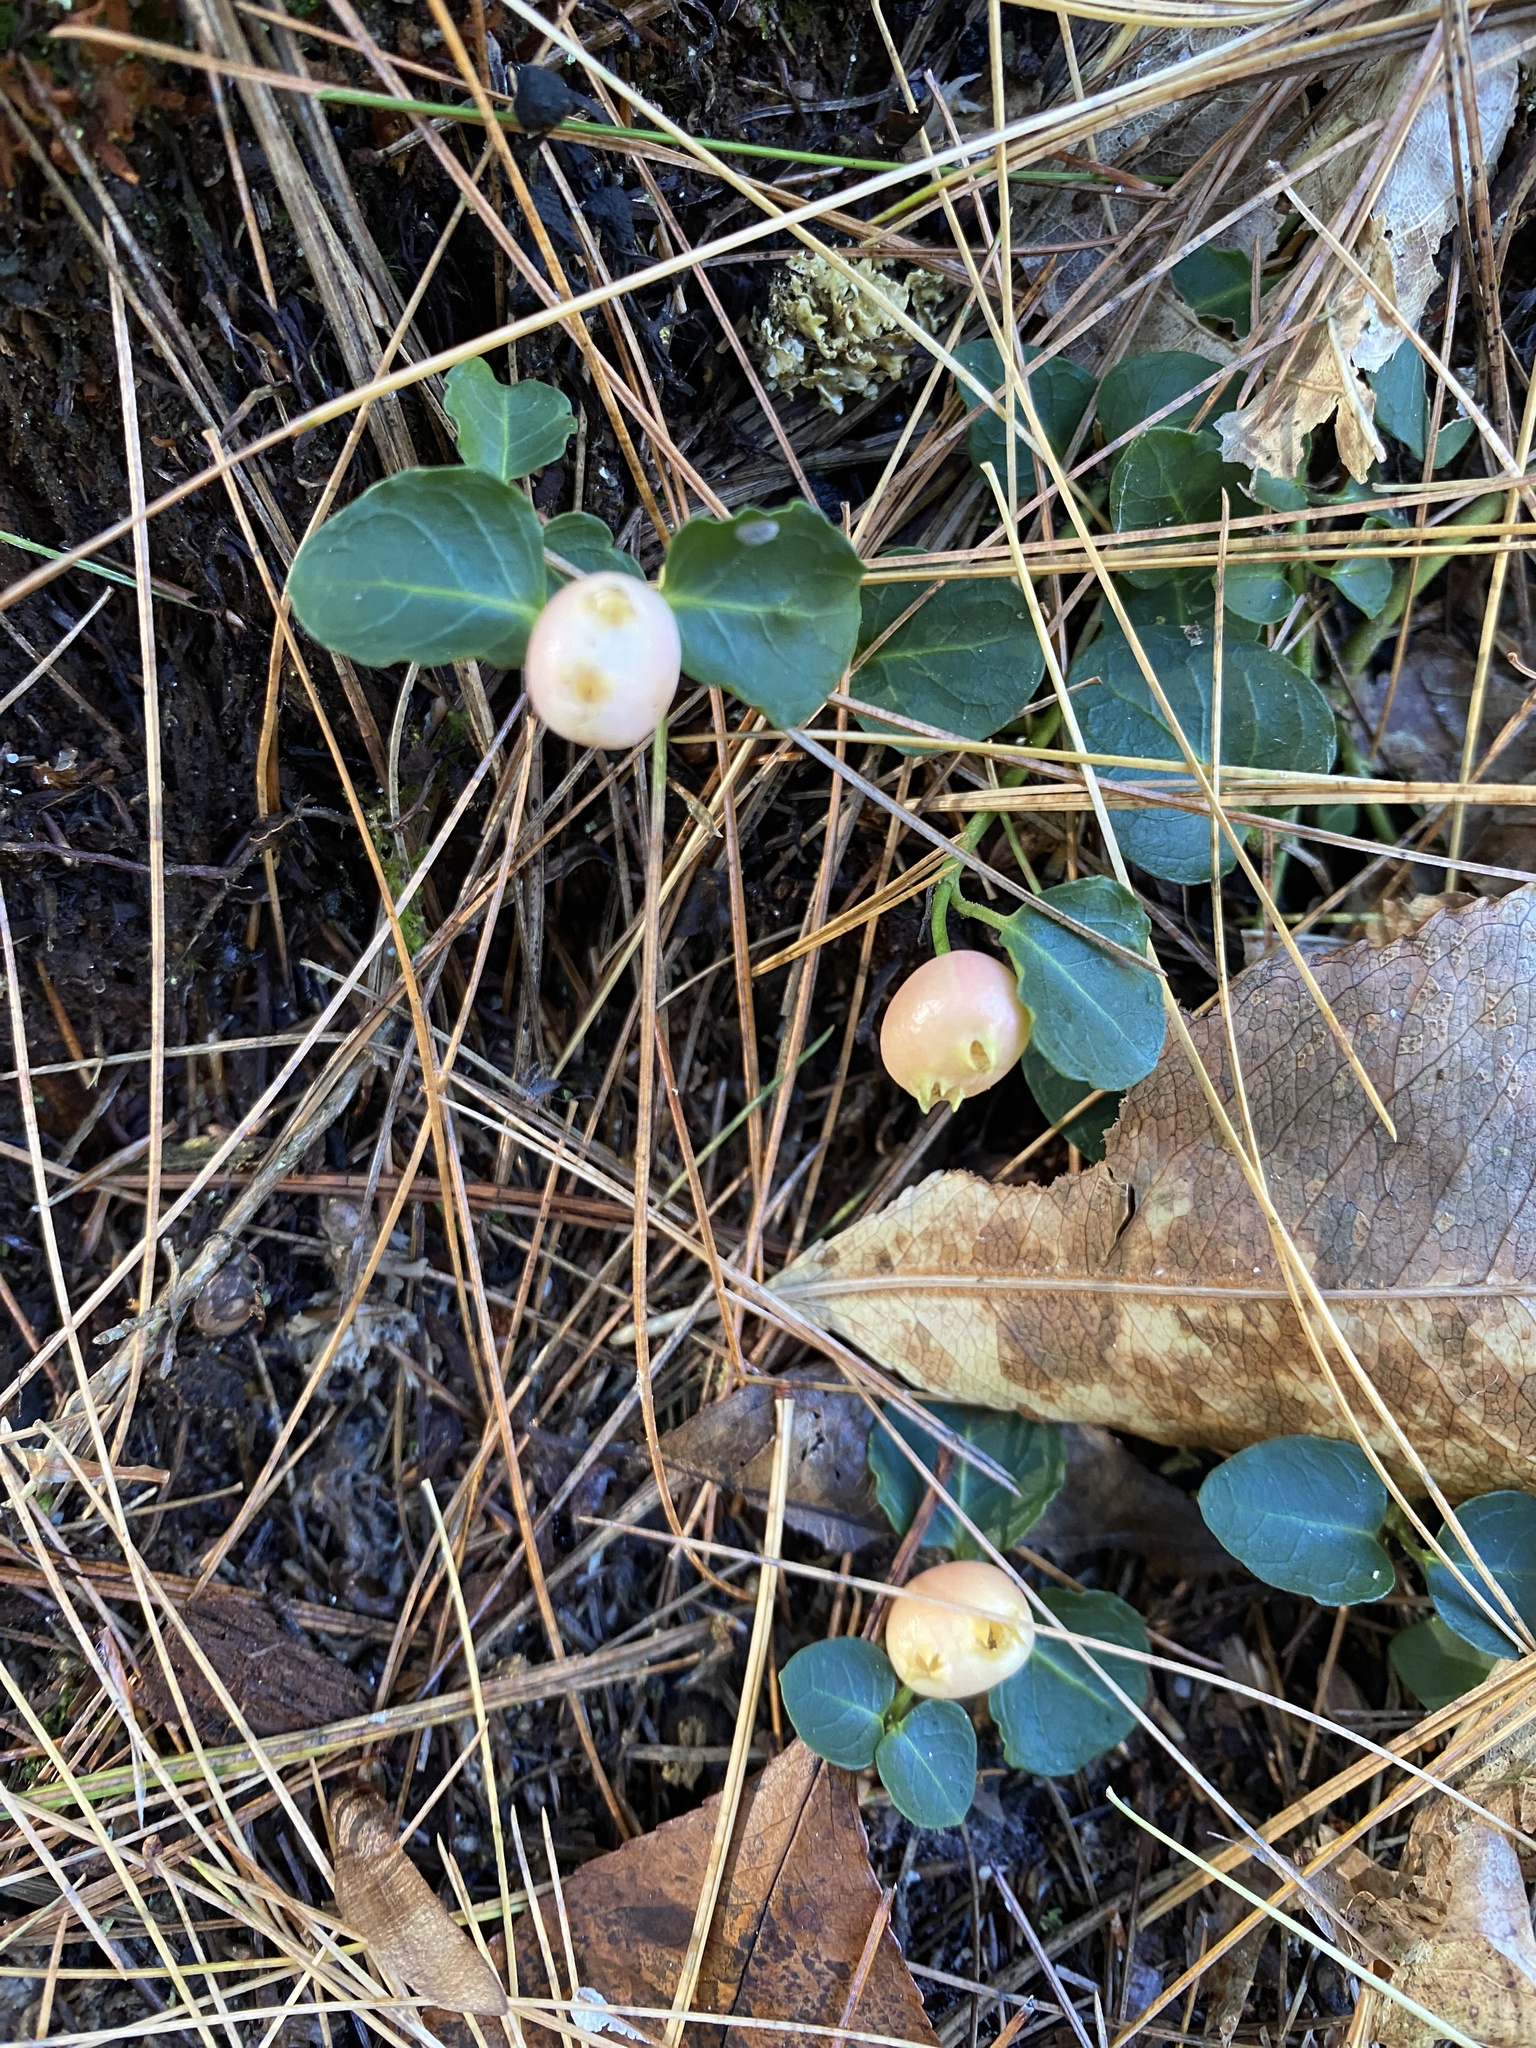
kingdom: Plantae
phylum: Tracheophyta
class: Magnoliopsida
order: Gentianales
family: Rubiaceae
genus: Mitchella
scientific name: Mitchella repens
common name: Partridge-berry
